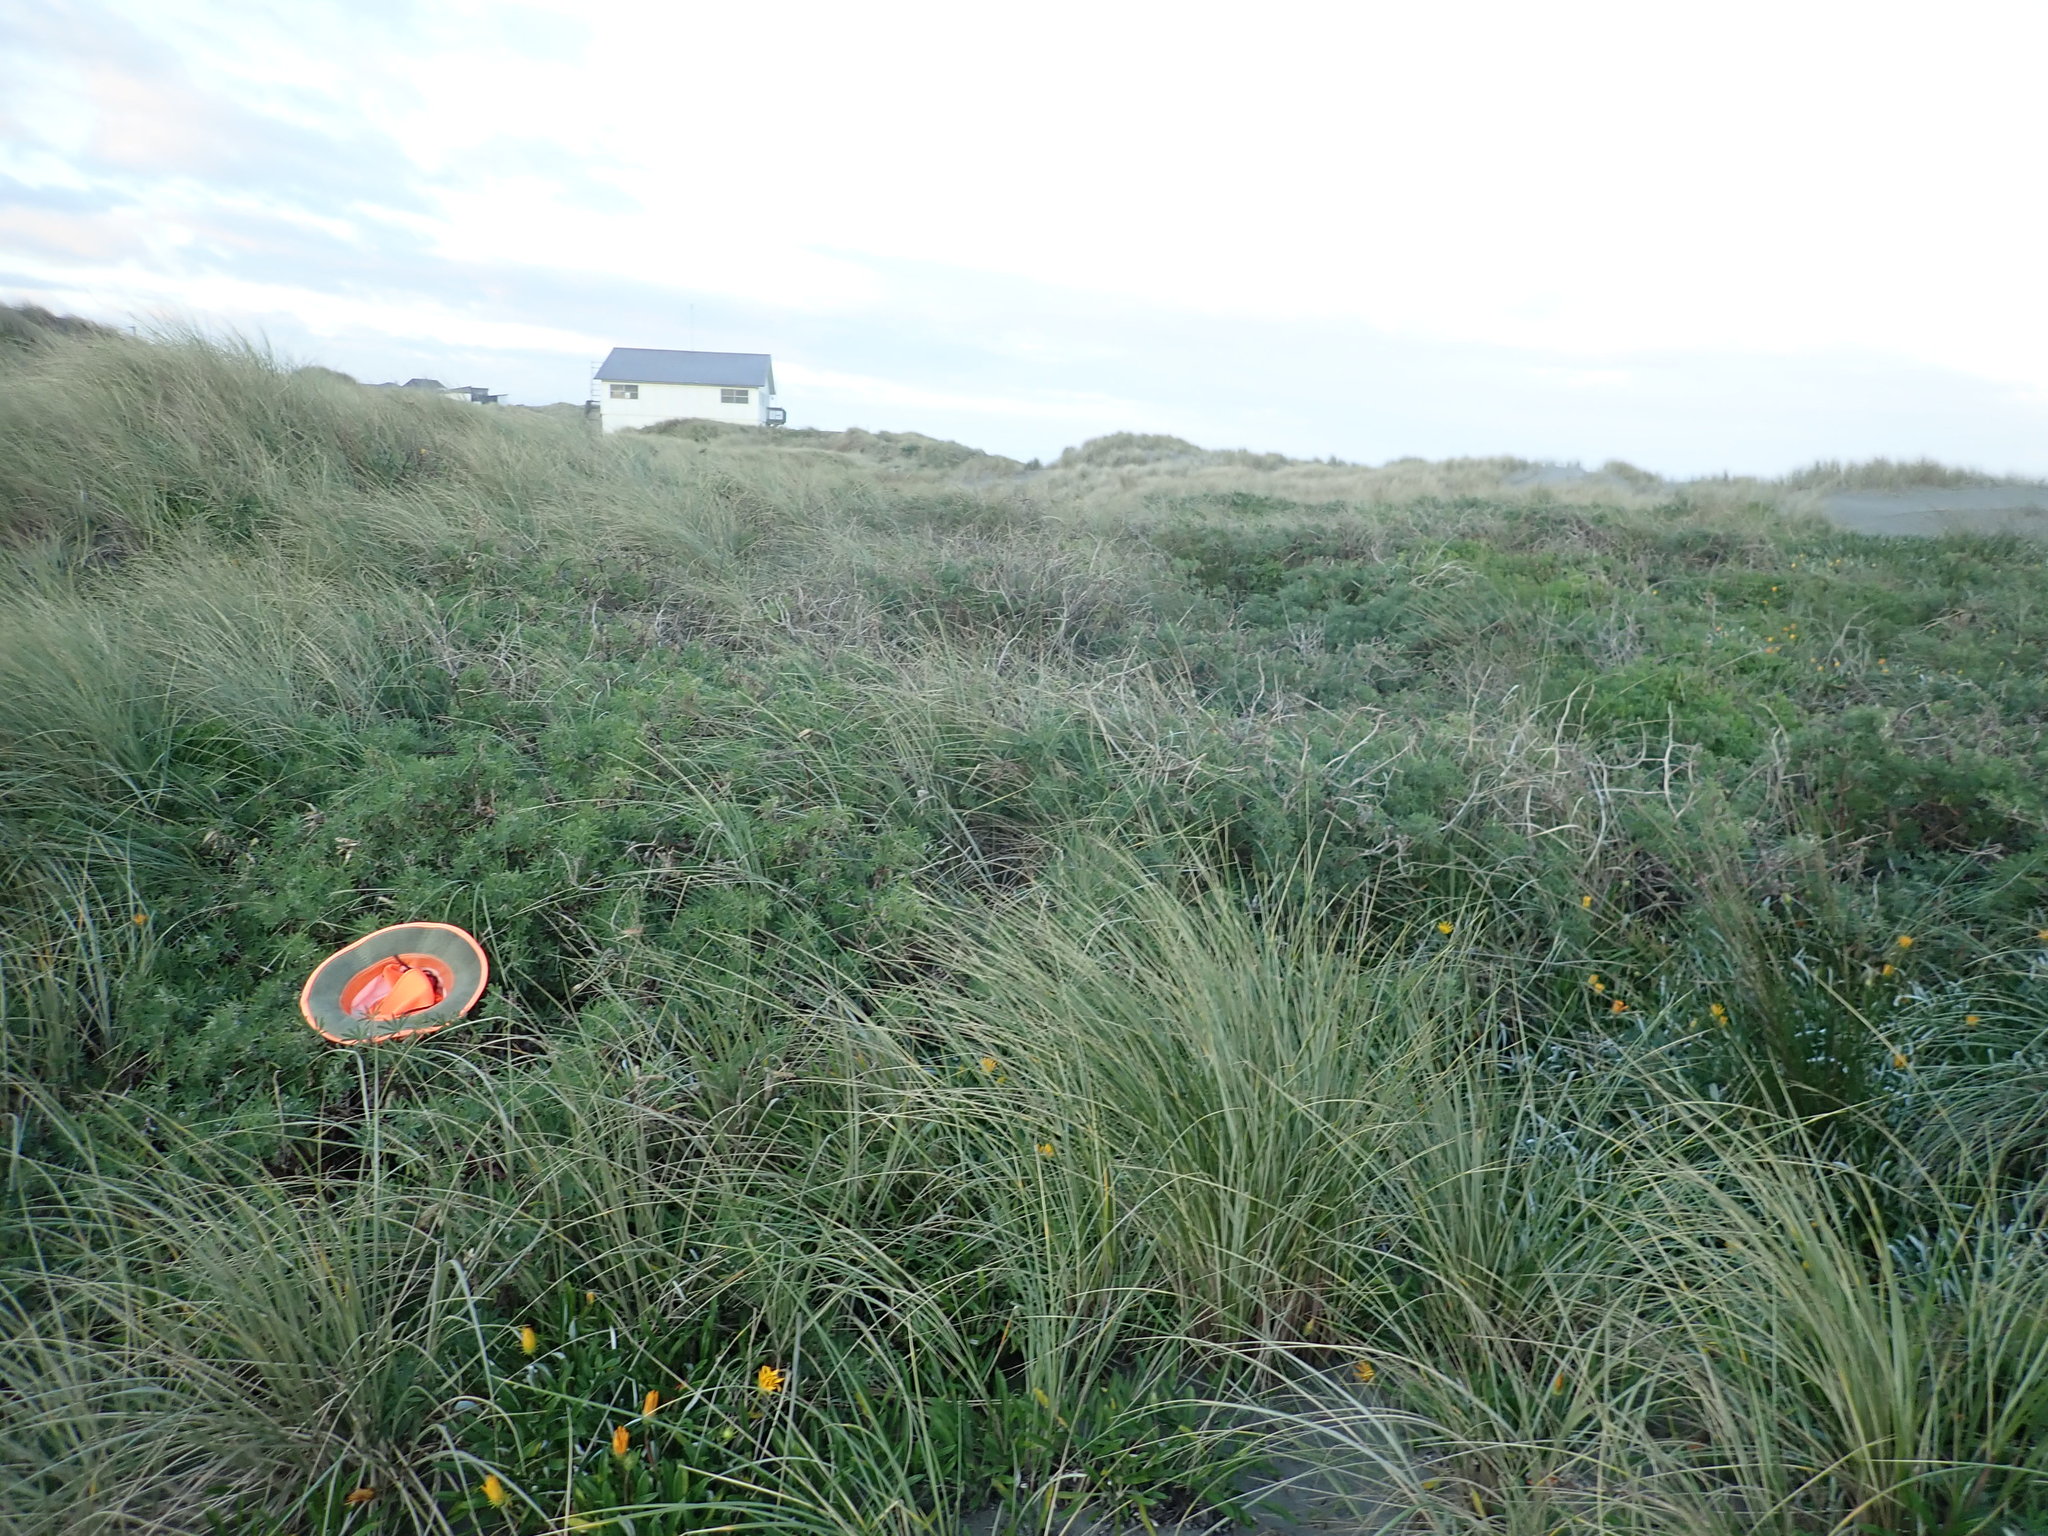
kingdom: Plantae
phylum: Tracheophyta
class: Magnoliopsida
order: Fabales
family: Fabaceae
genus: Lupinus
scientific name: Lupinus arboreus
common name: Yellow bush lupine
